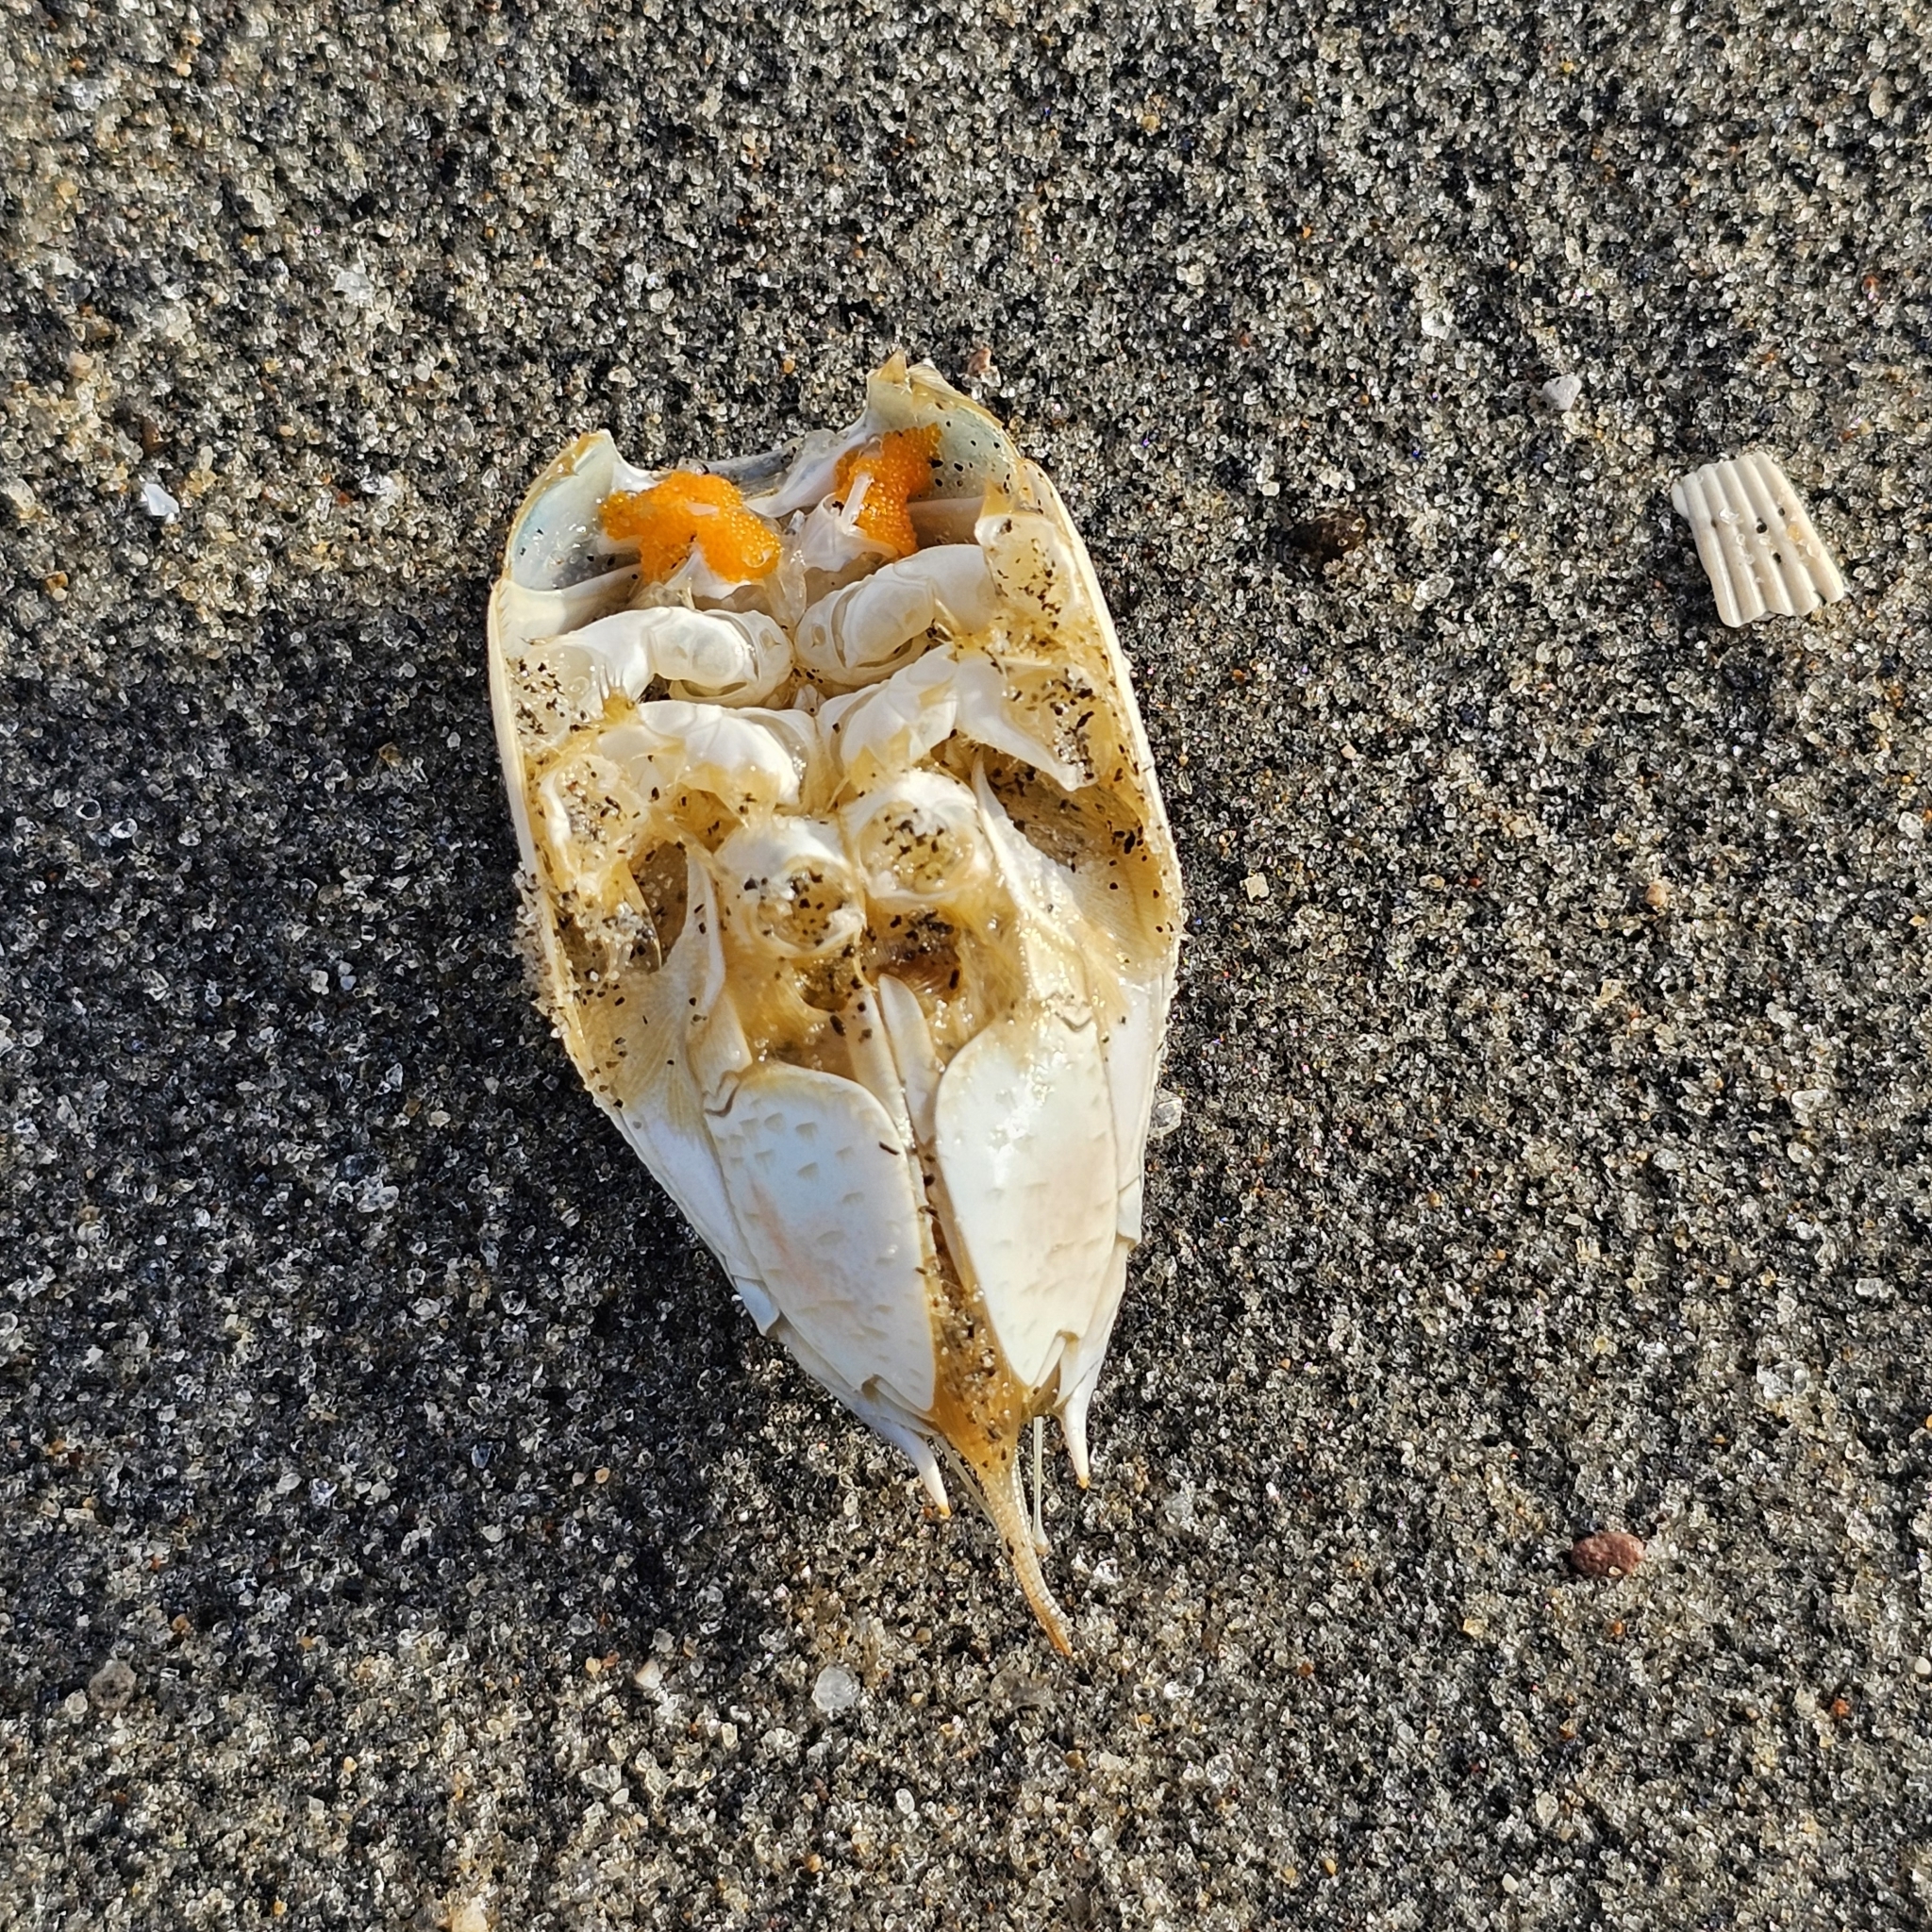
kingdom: Animalia
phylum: Arthropoda
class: Malacostraca
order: Decapoda
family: Hippidae
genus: Emerita
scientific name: Emerita rathbunae
